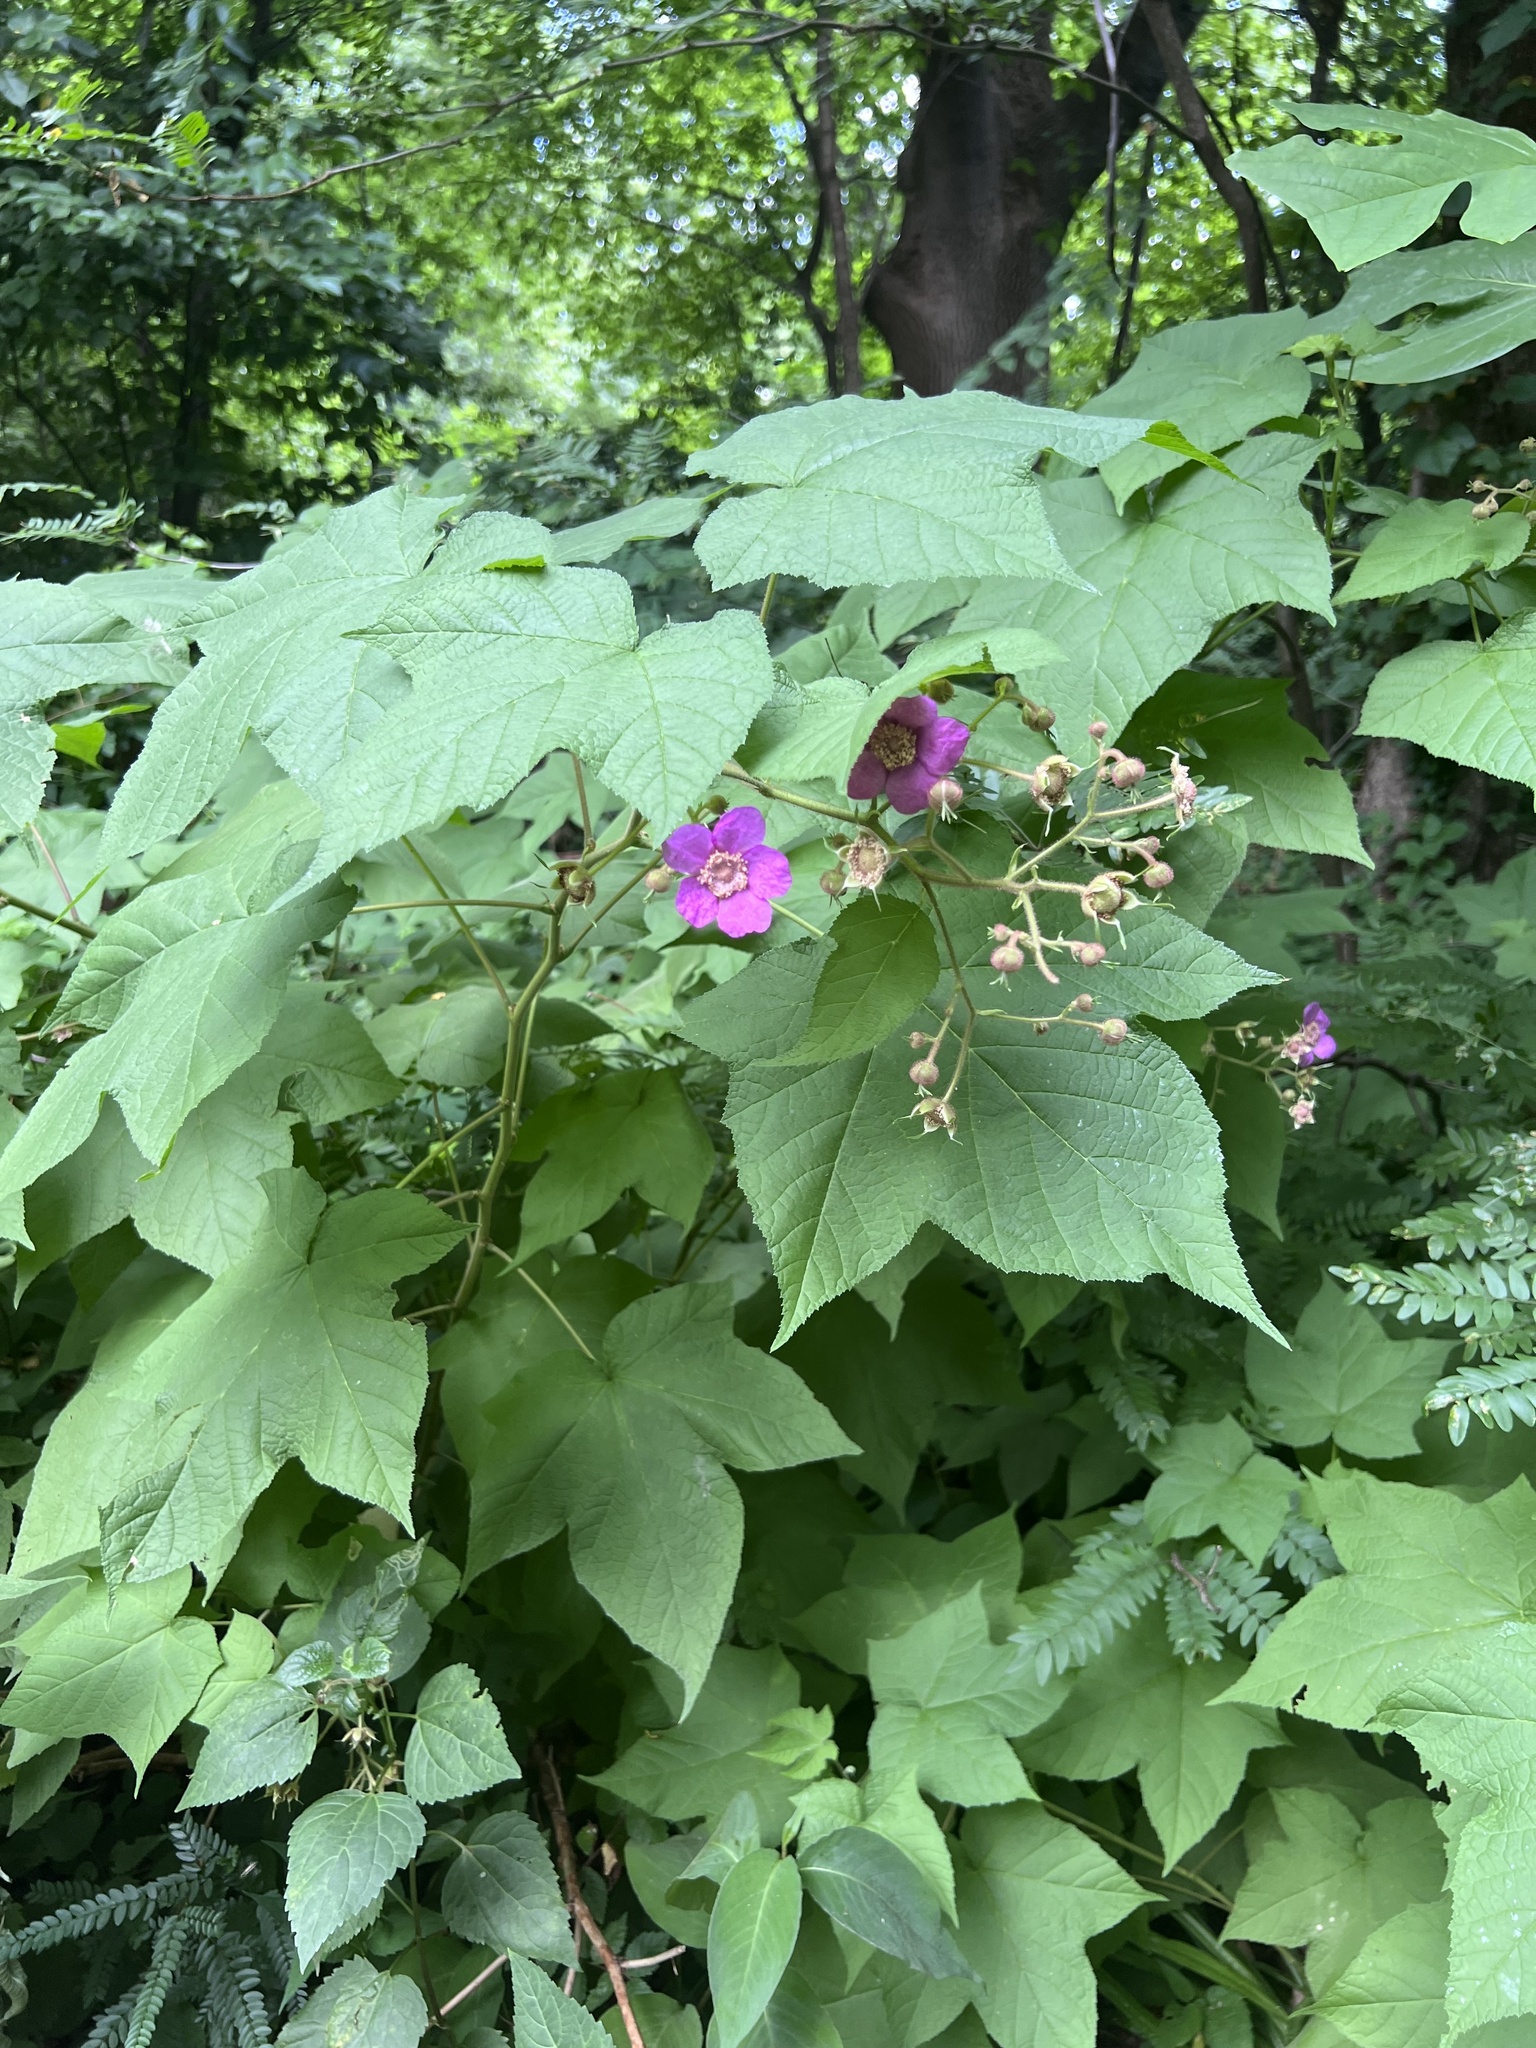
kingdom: Plantae
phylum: Tracheophyta
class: Magnoliopsida
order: Rosales
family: Rosaceae
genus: Rubus
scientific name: Rubus odoratus
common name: Purple-flowered raspberry
